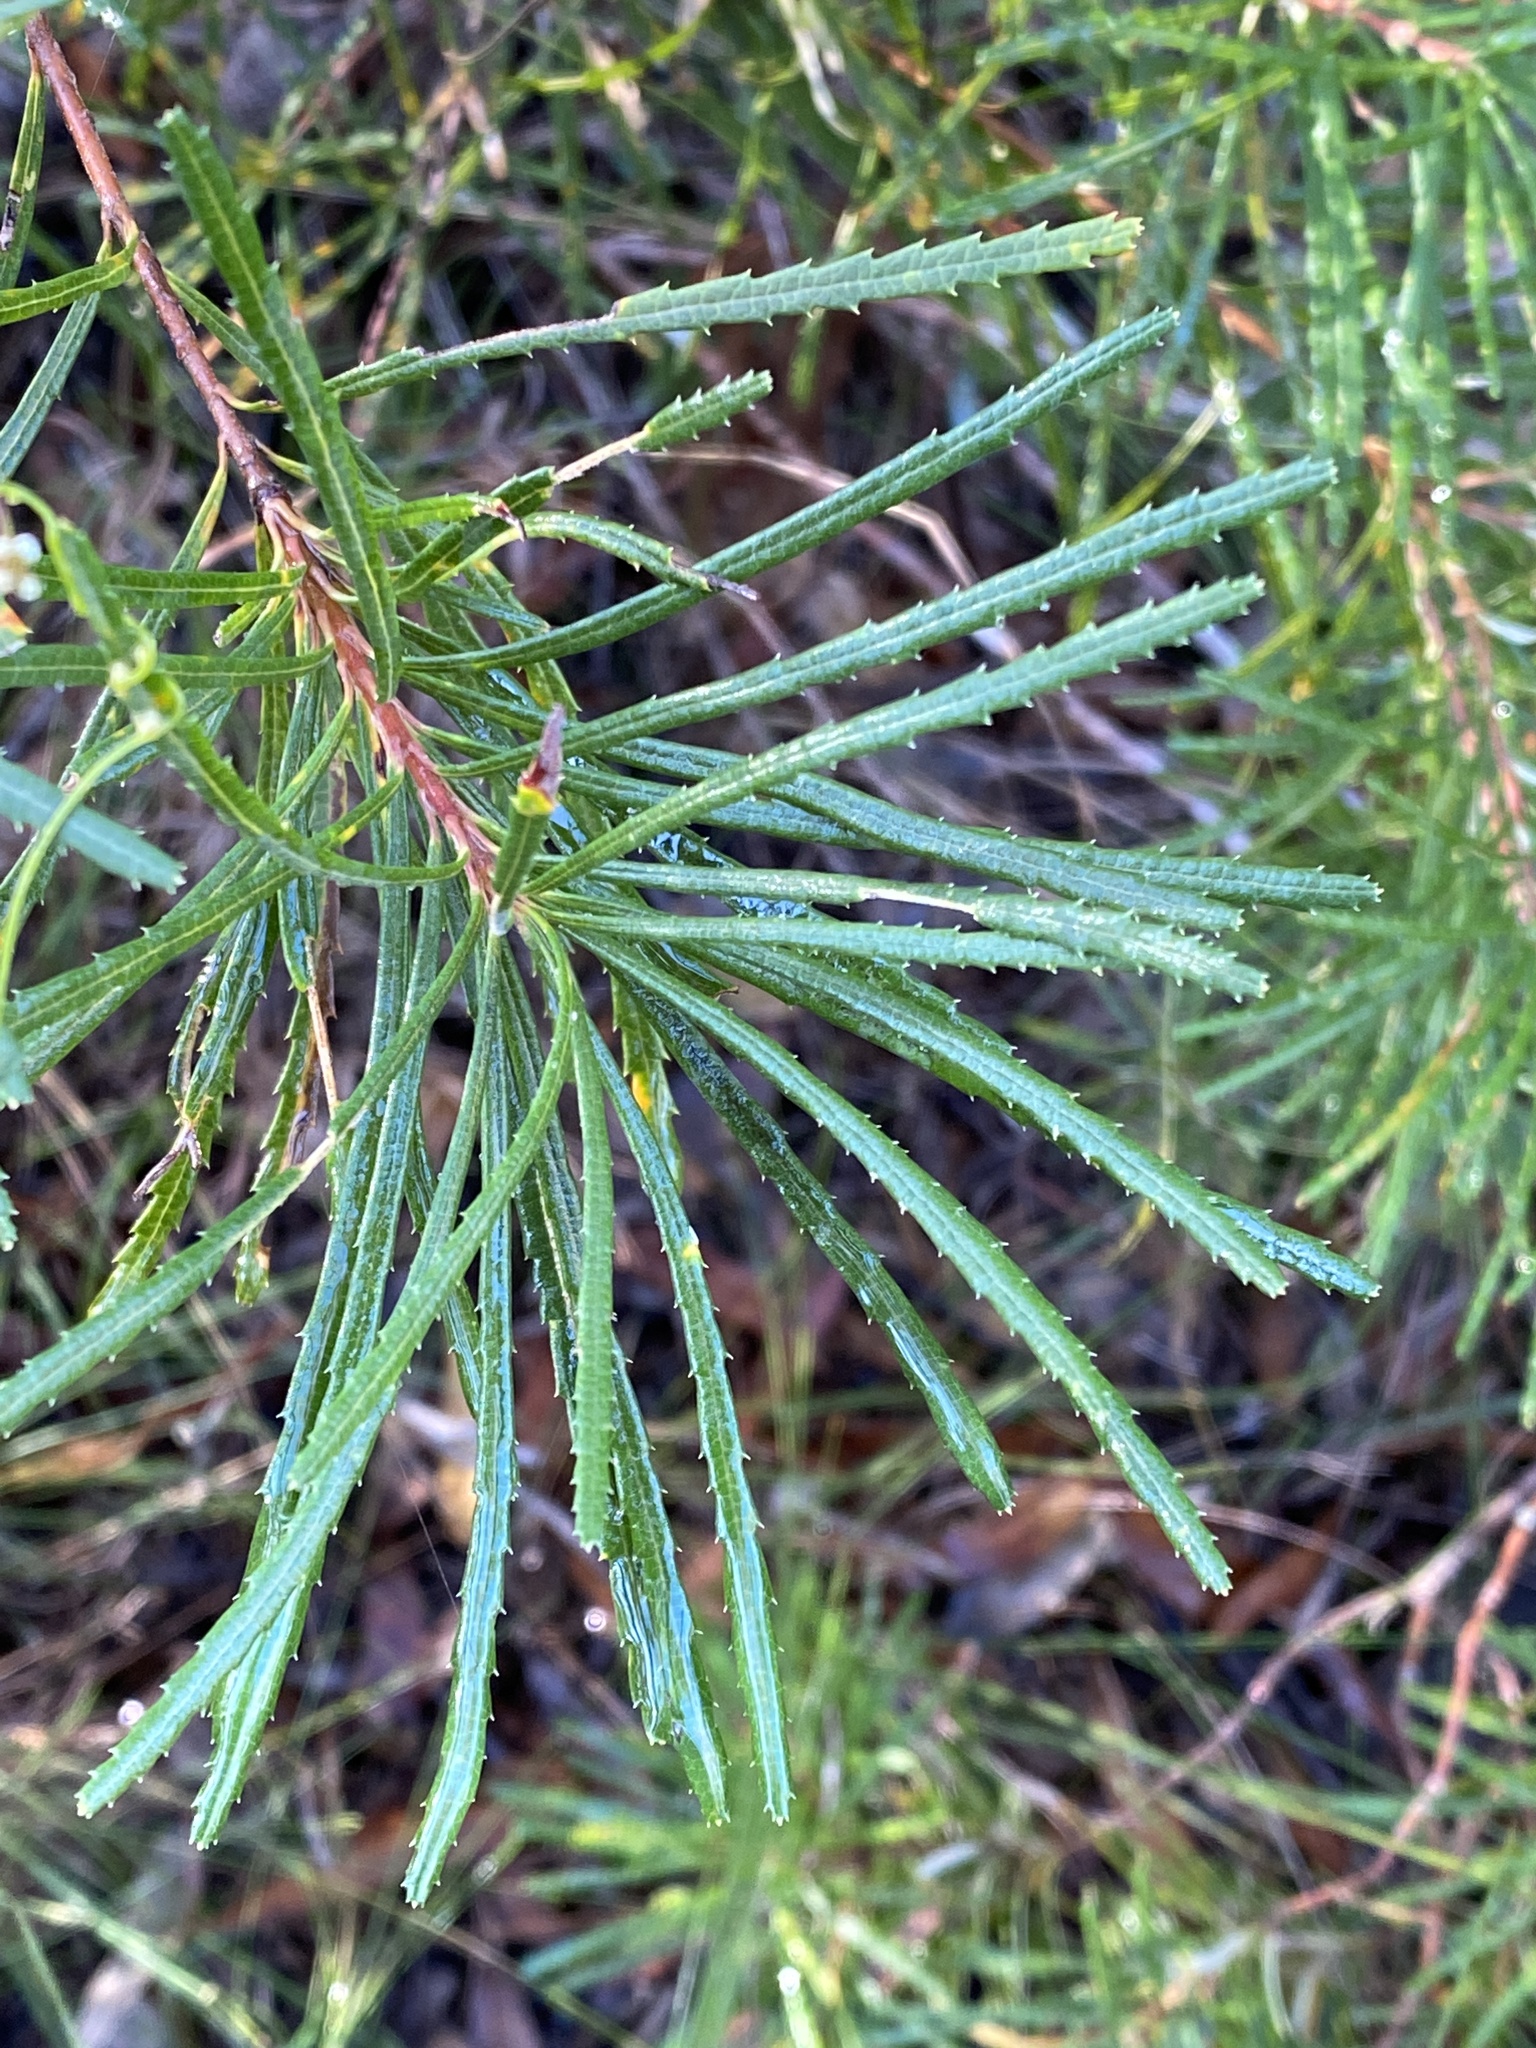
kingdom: Plantae
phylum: Tracheophyta
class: Magnoliopsida
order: Proteales
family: Proteaceae
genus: Banksia
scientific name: Banksia spinulosa
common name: Hairpin banksia
